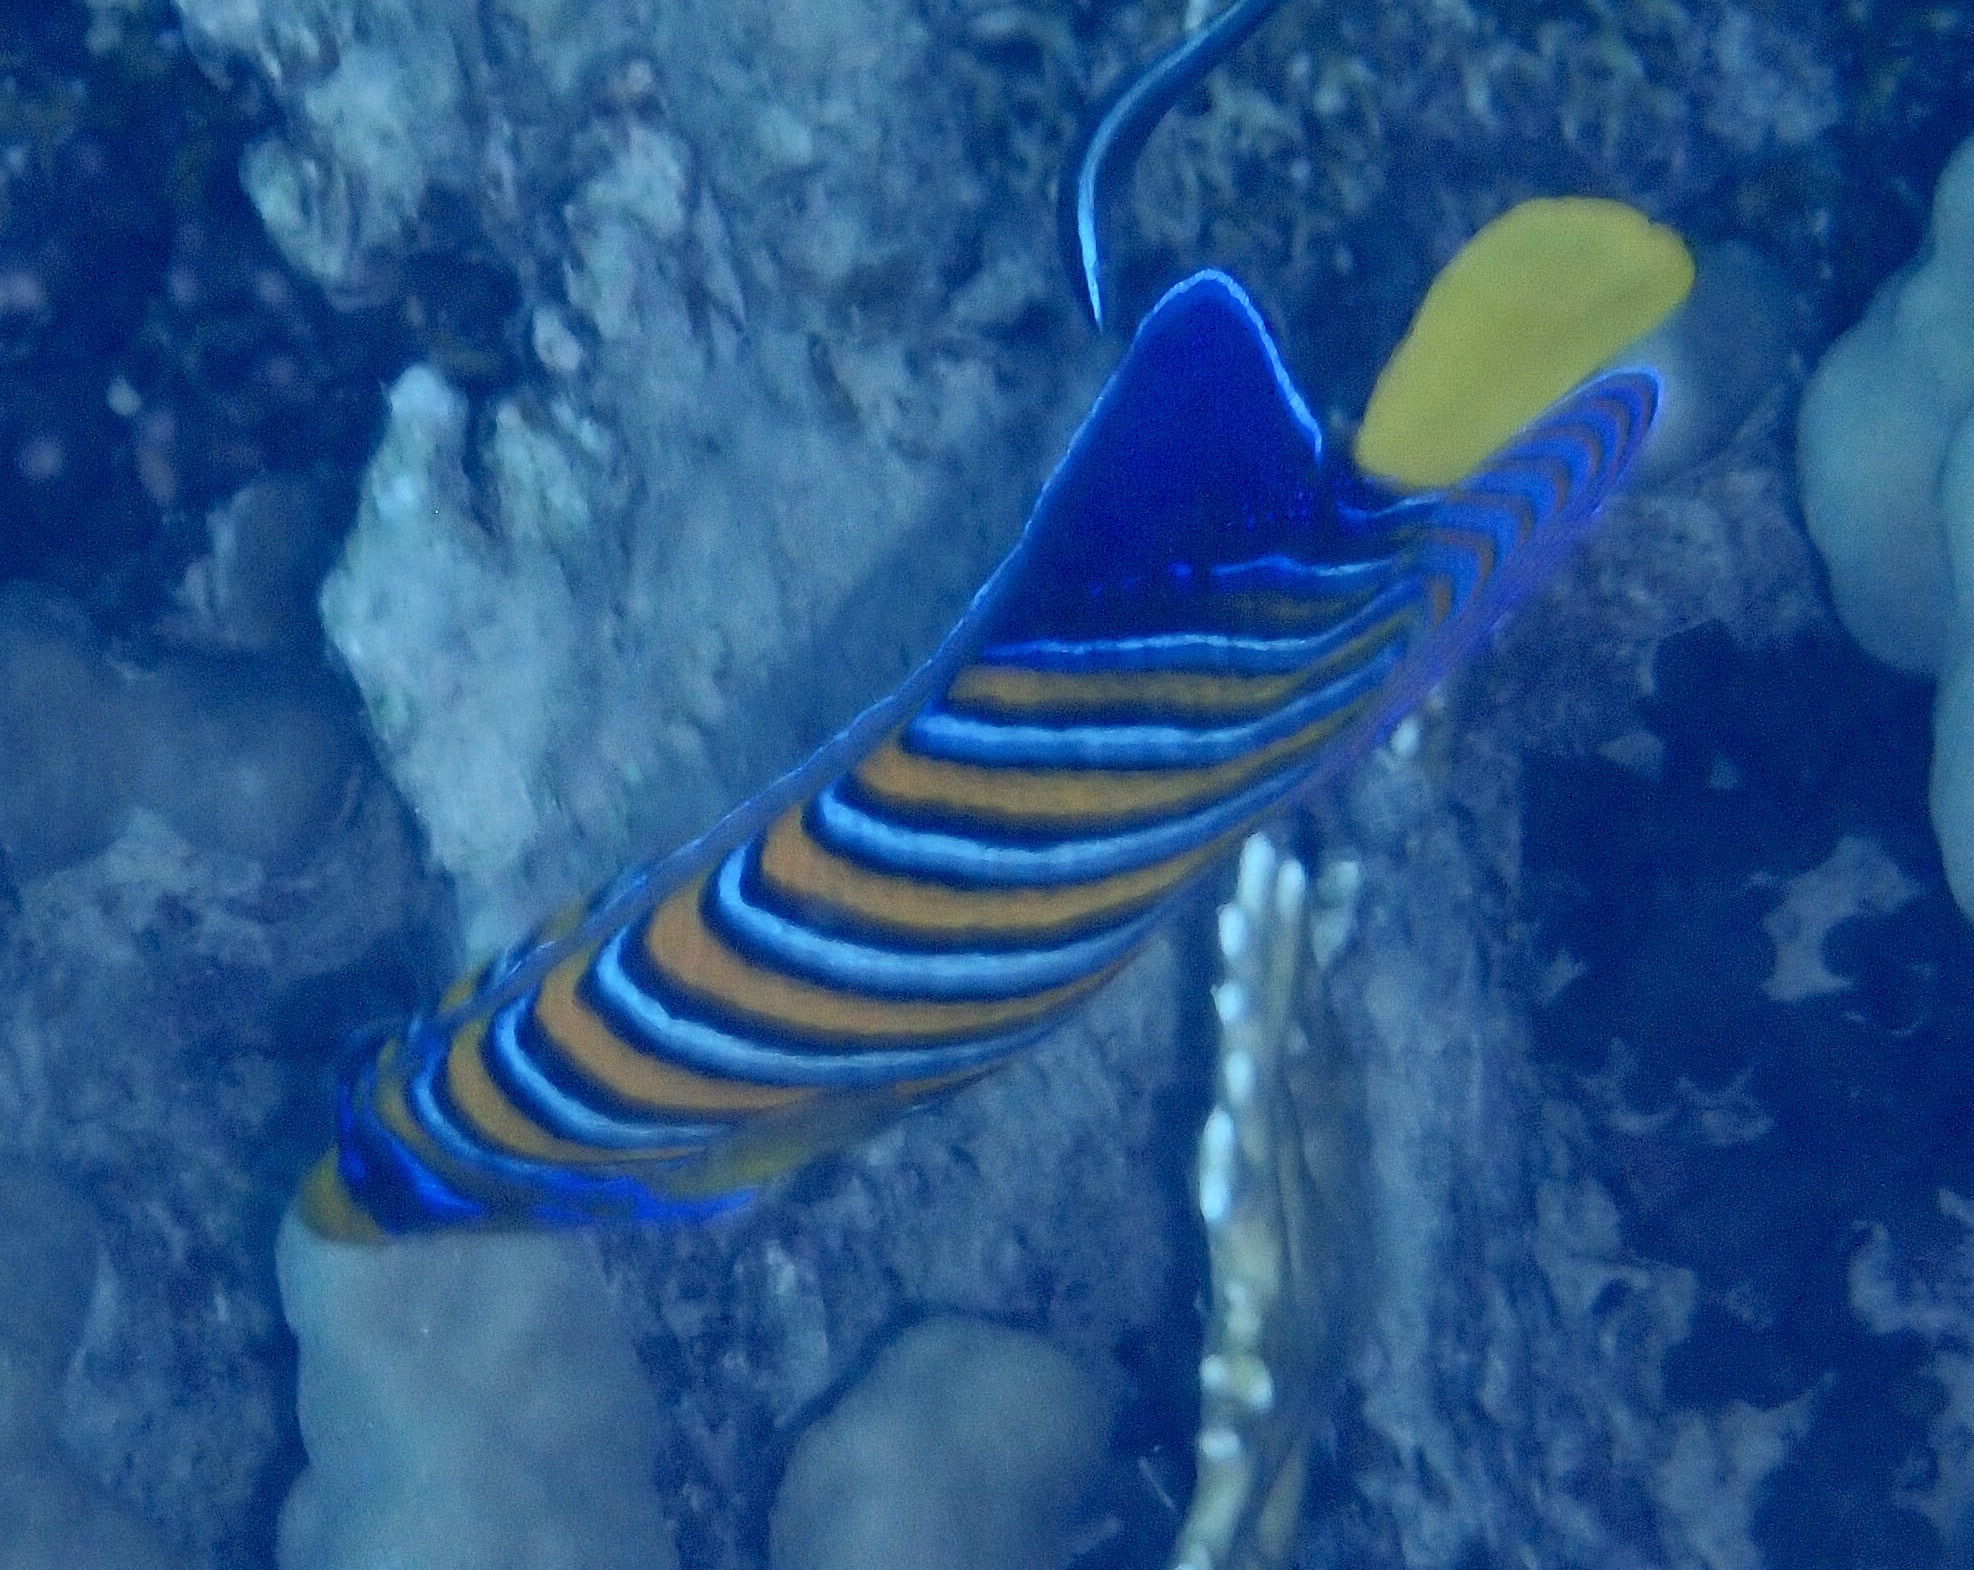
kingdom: Animalia
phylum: Chordata
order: Perciformes
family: Pomacanthidae
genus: Pygoplites
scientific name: Pygoplites diacanthus
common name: Regal angelfish
